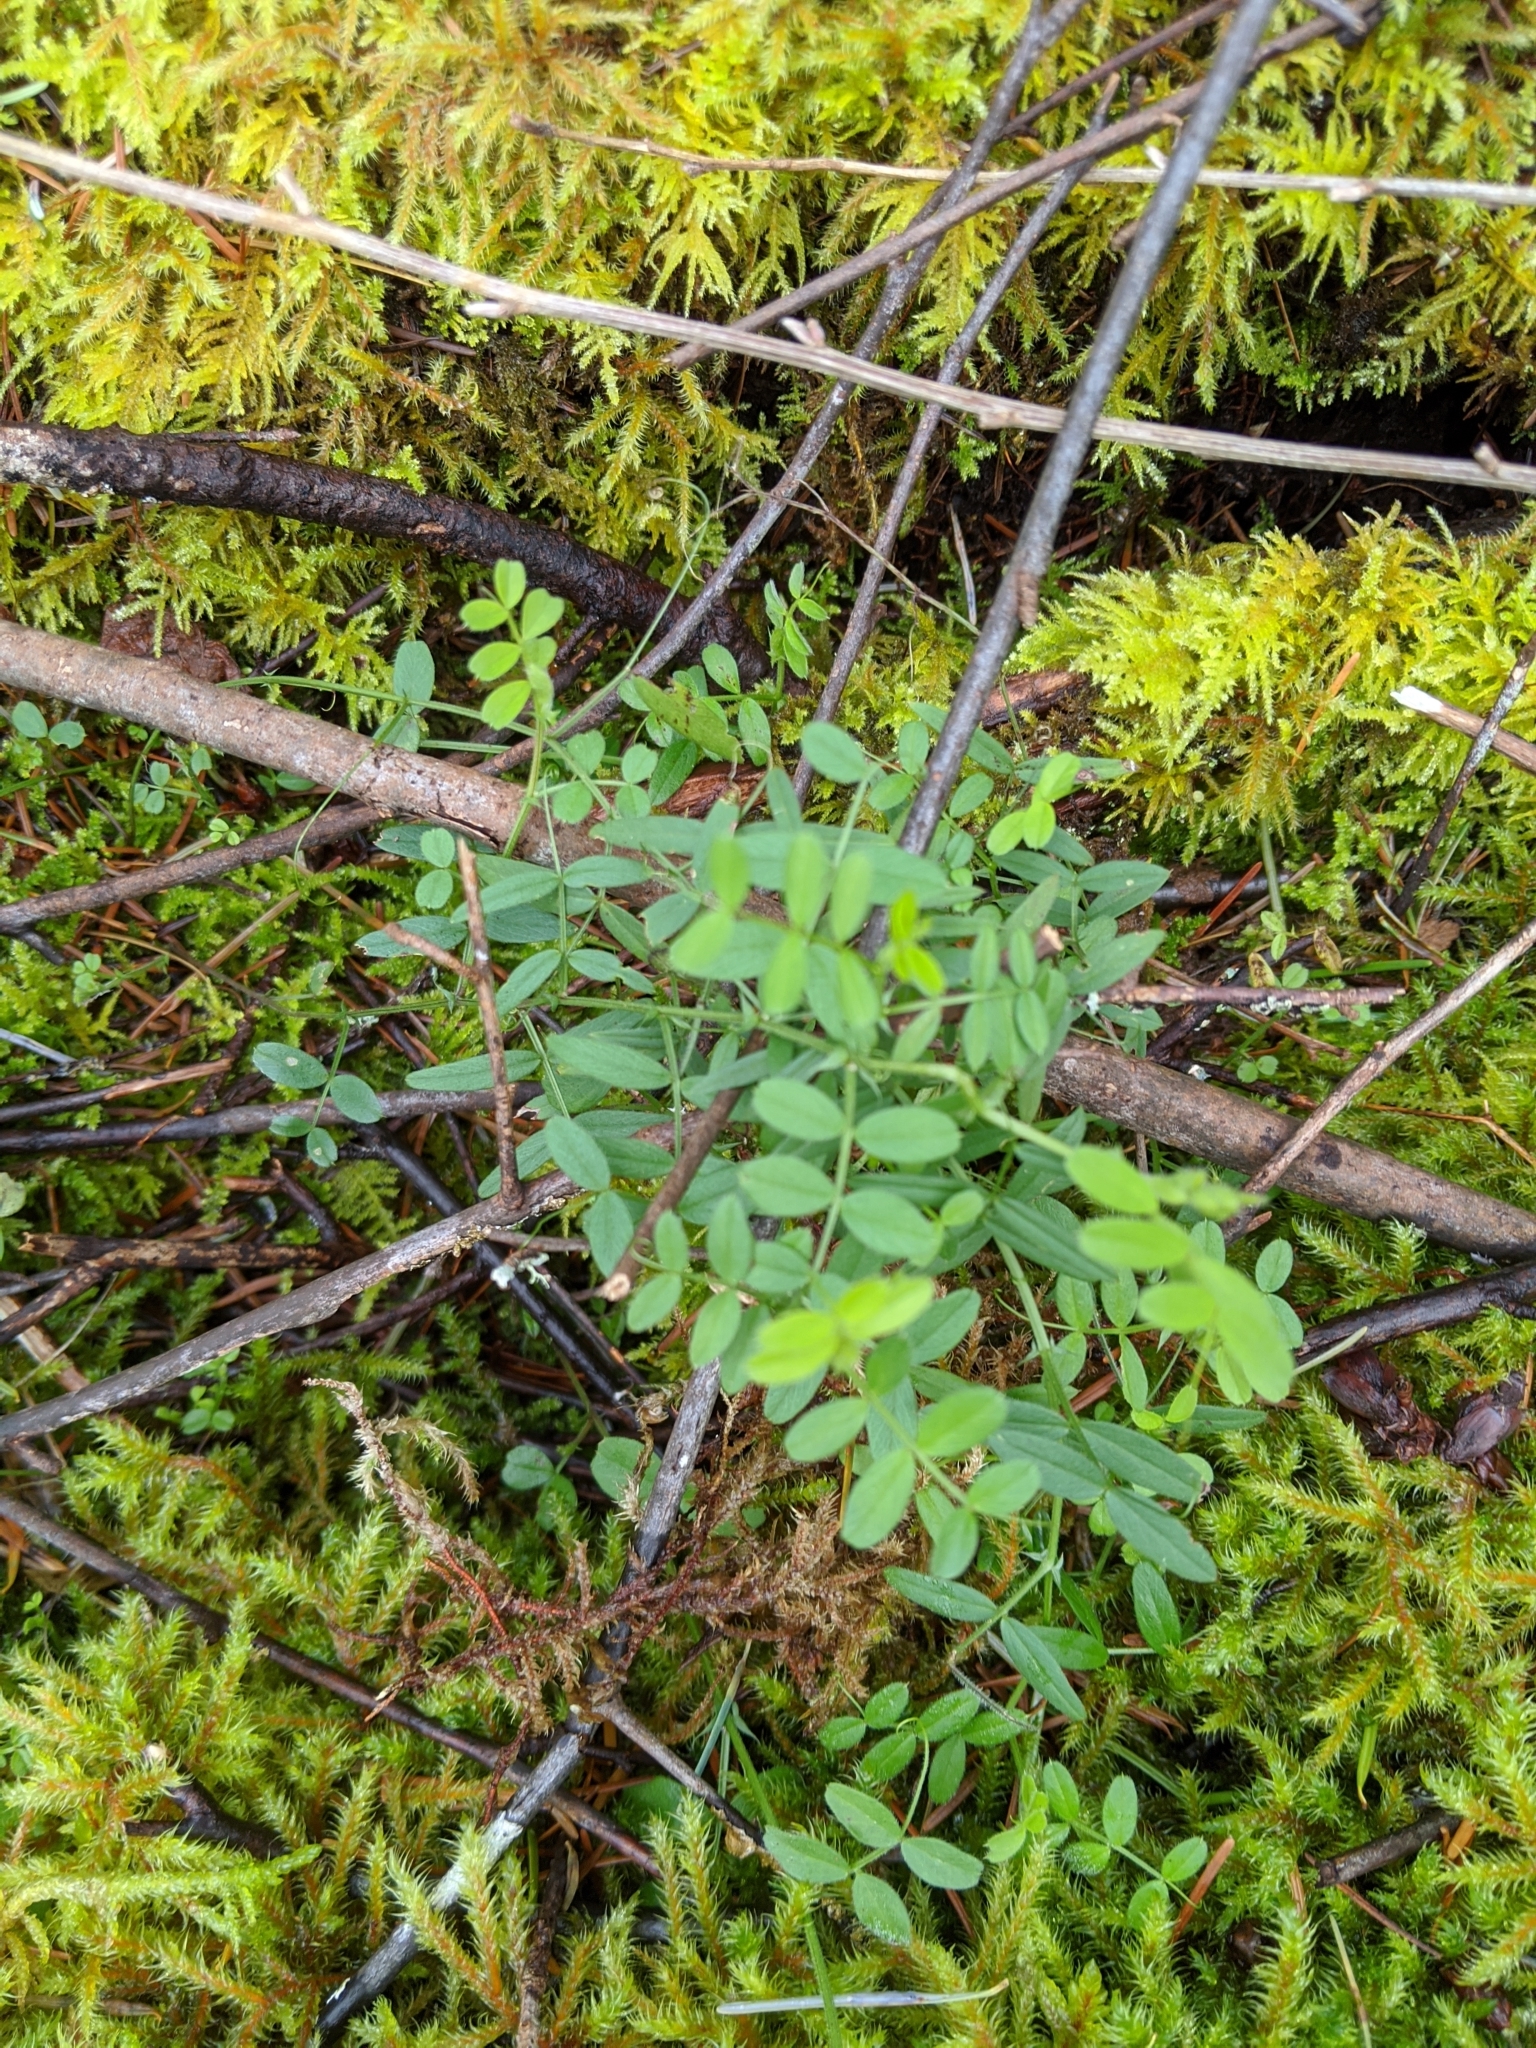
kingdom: Plantae
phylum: Tracheophyta
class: Magnoliopsida
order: Fabales
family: Fabaceae
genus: Vicia
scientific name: Vicia sativa
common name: Garden vetch
